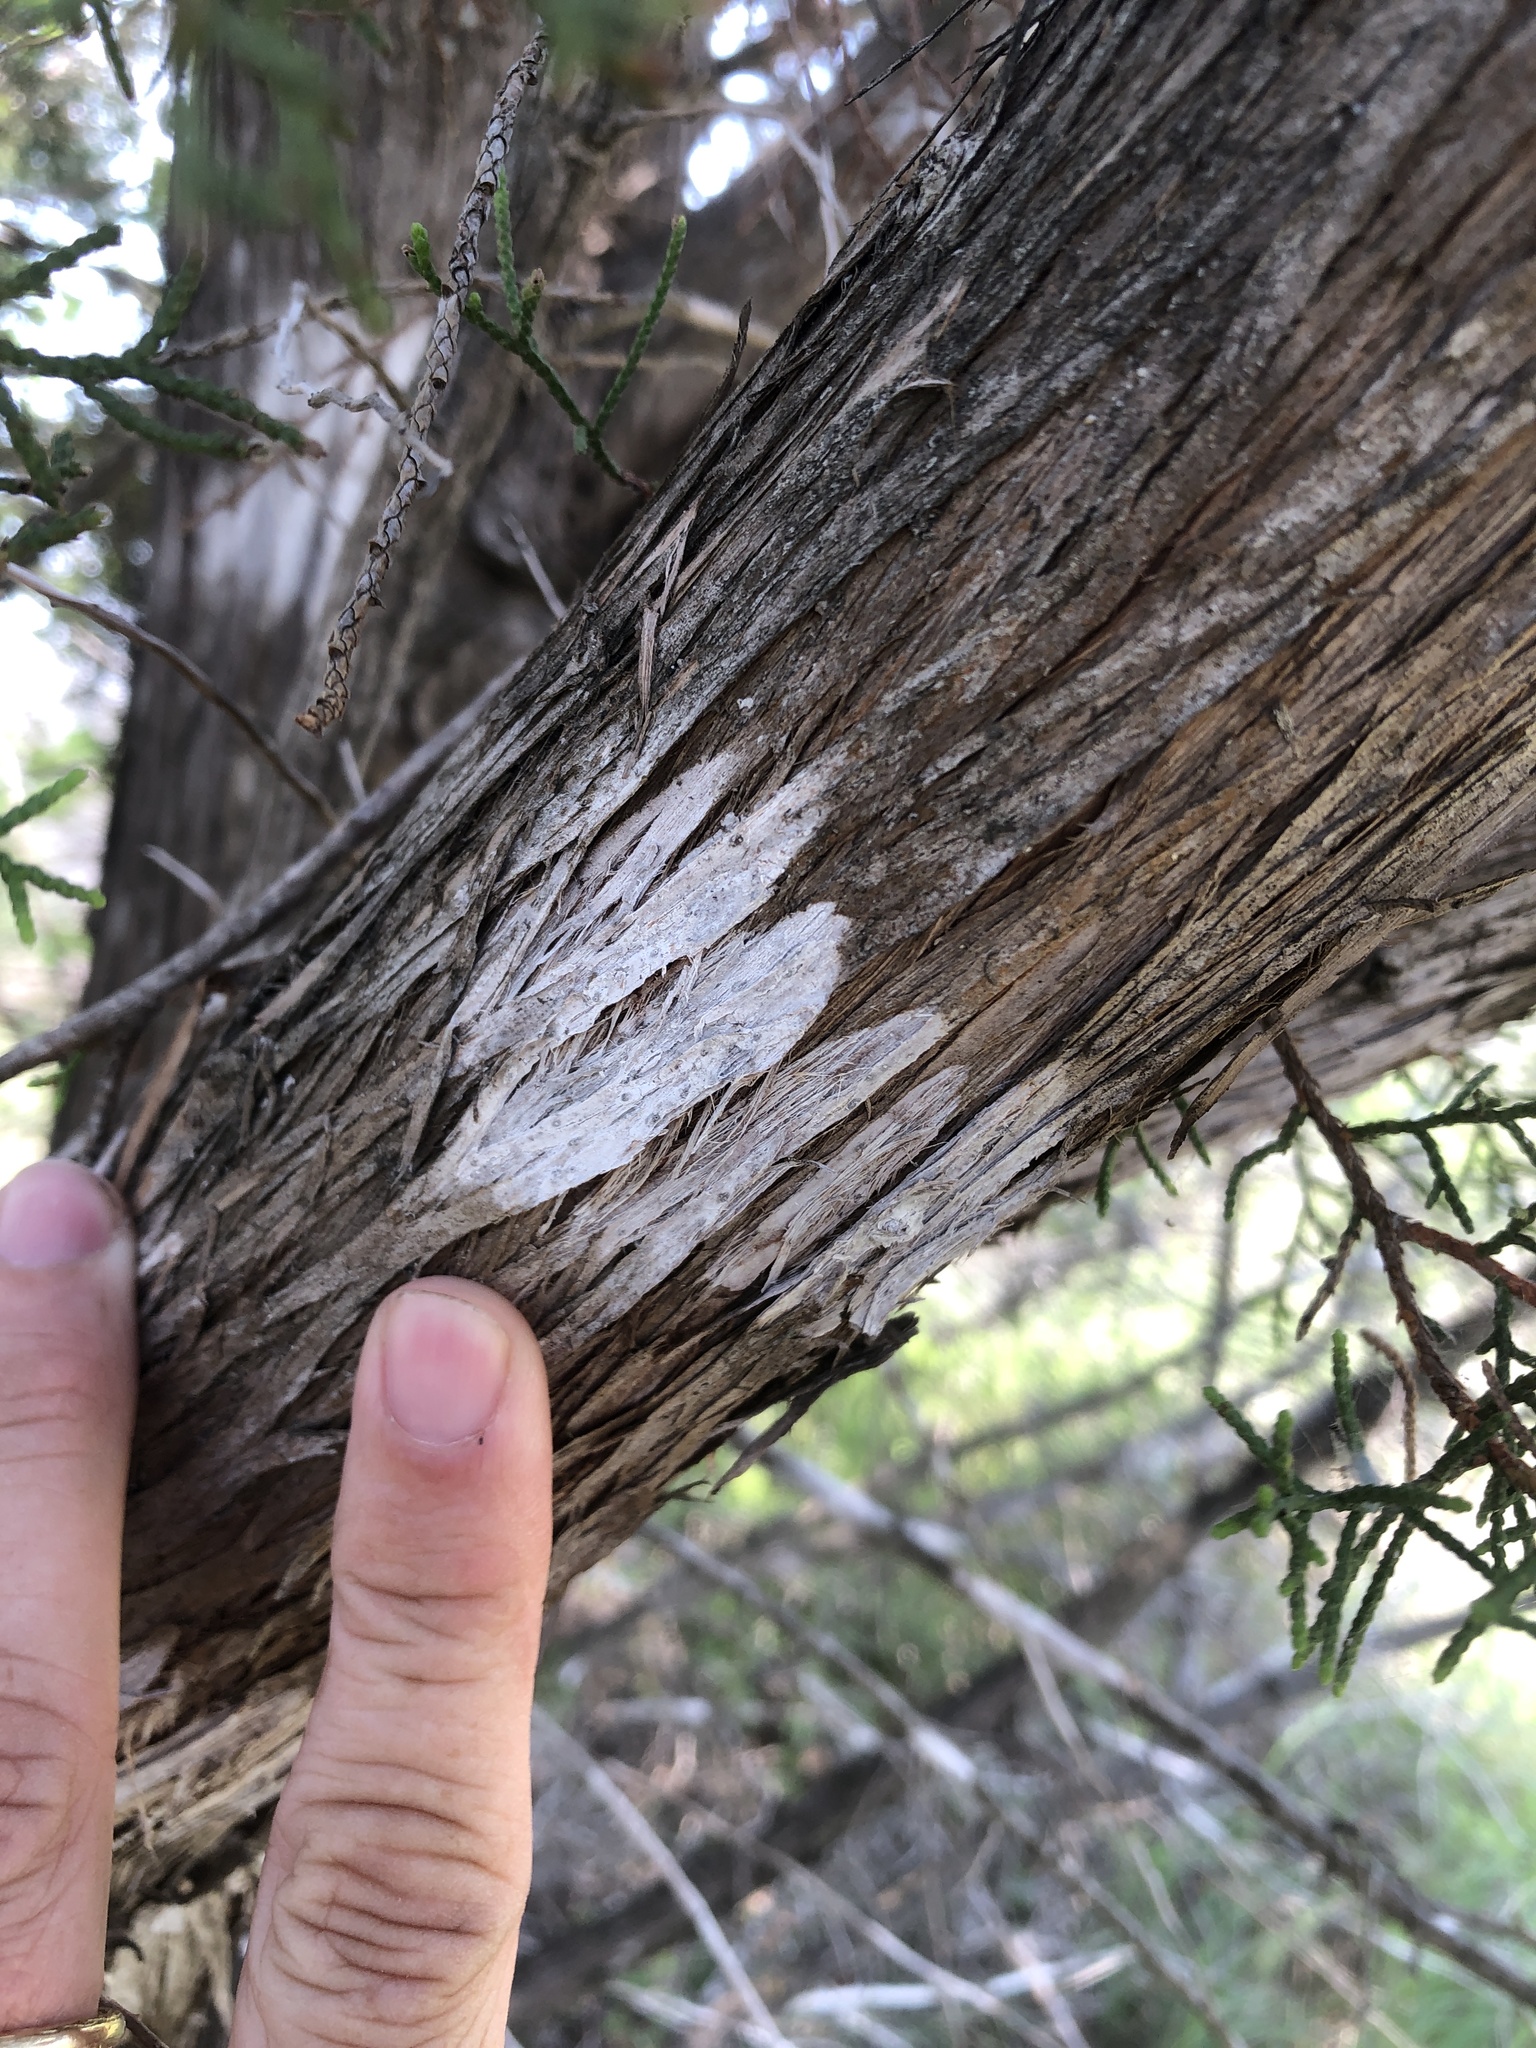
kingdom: Fungi
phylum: Ascomycota
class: Lecanoromycetes
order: Ostropales
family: Stictidaceae
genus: Robergea
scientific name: Robergea
